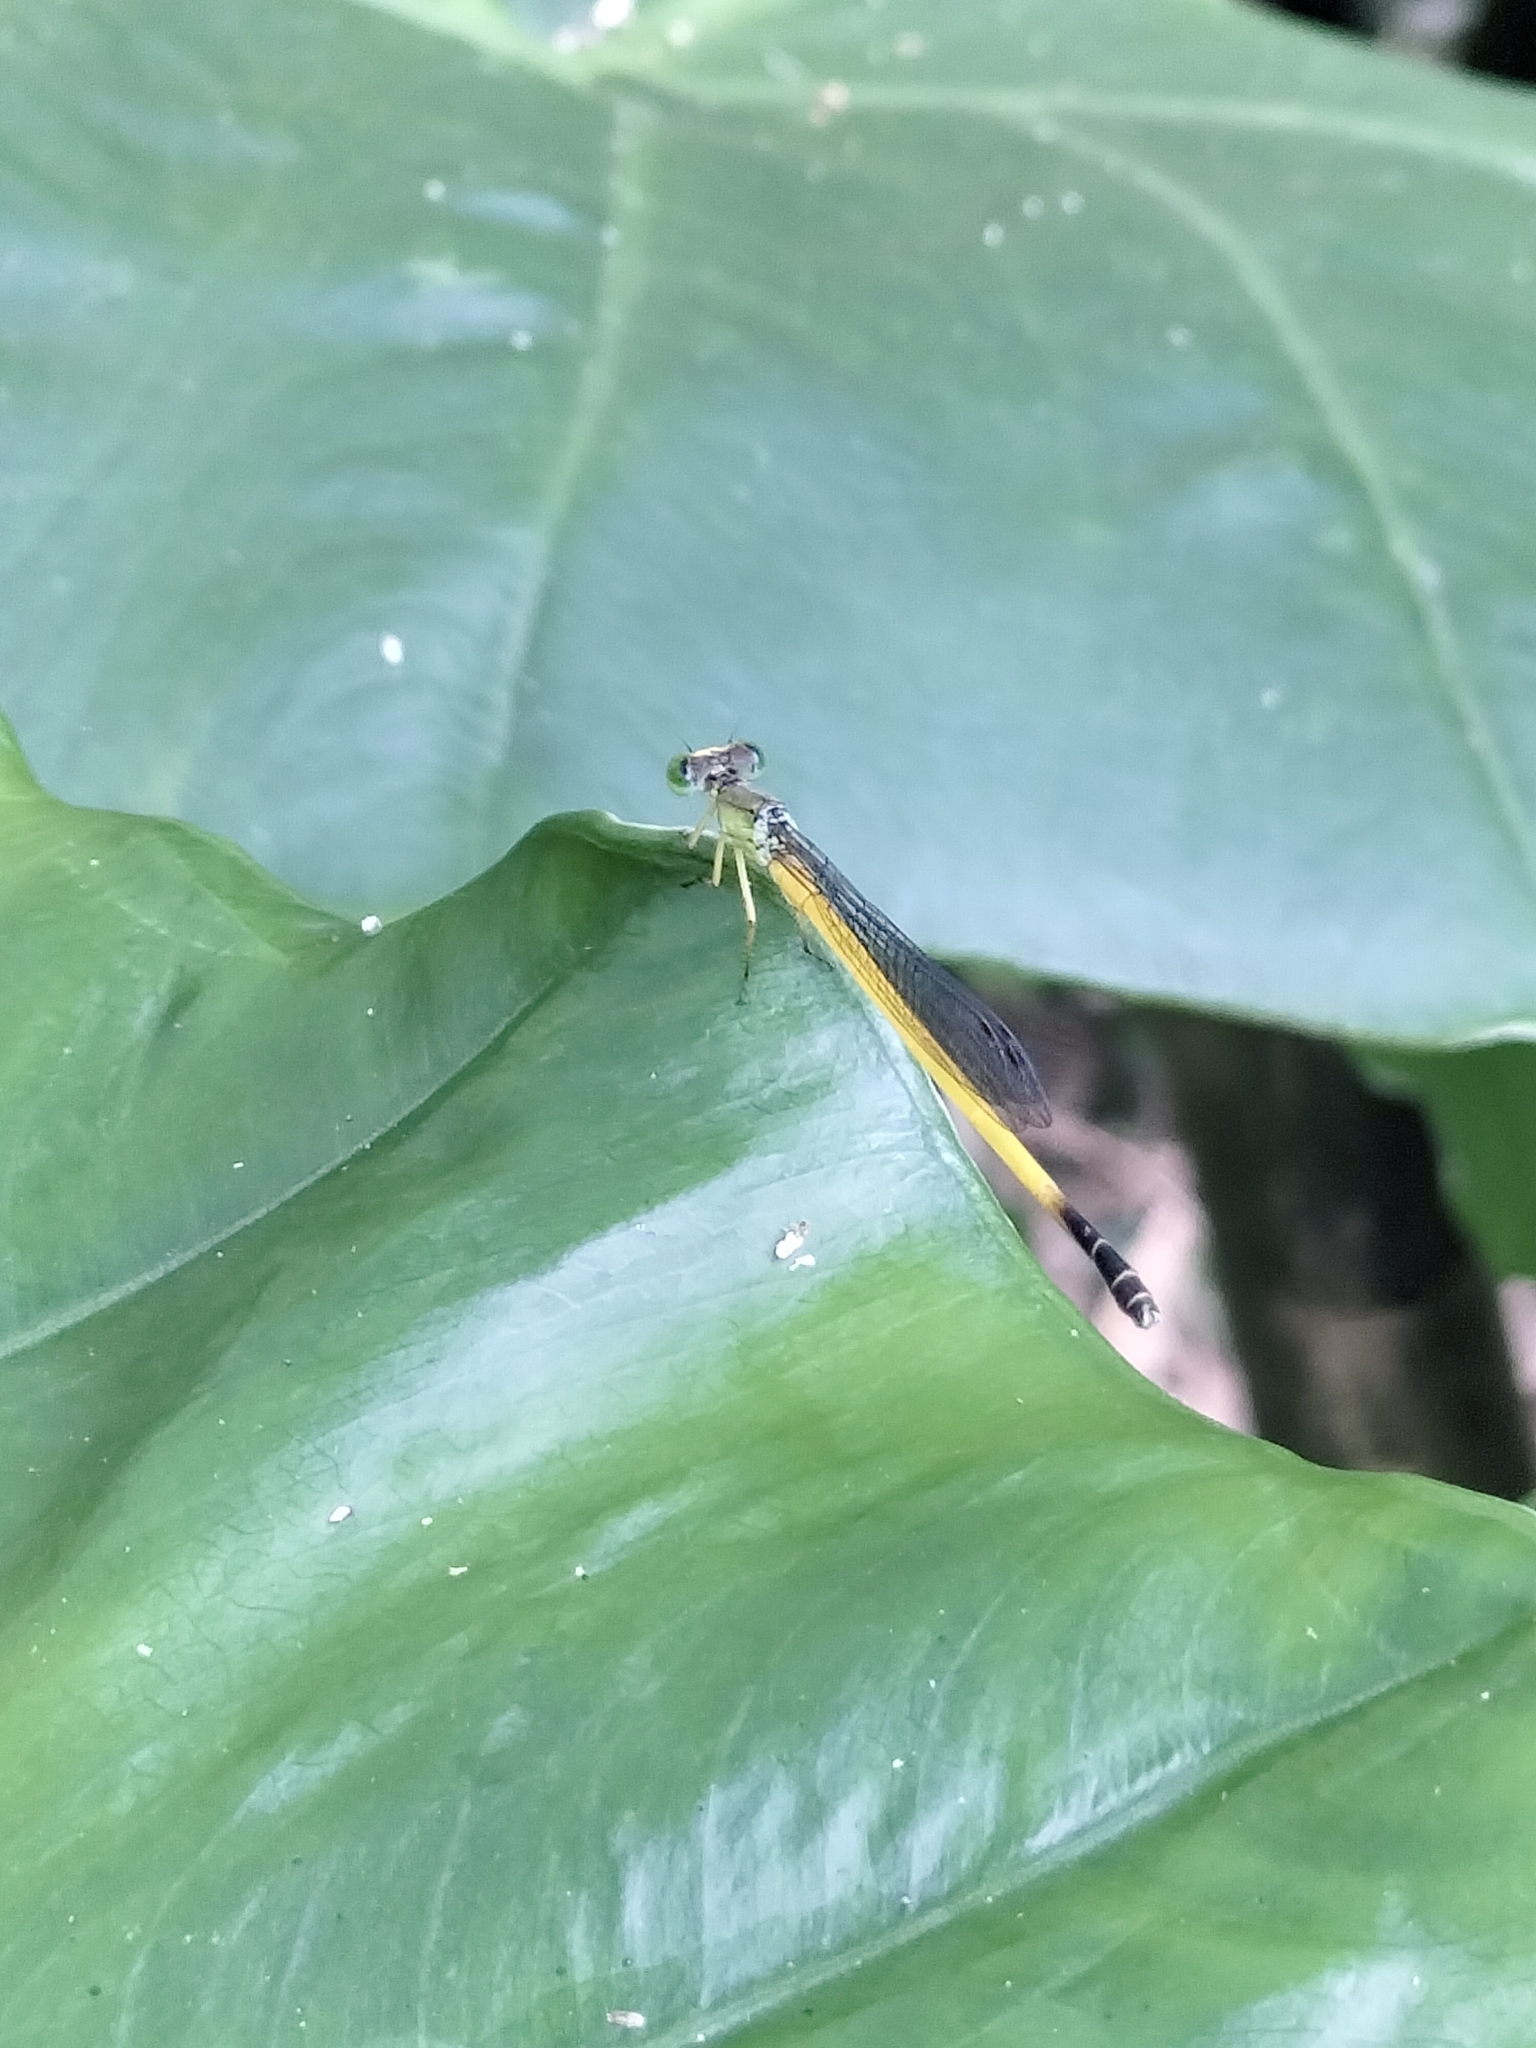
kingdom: Animalia
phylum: Arthropoda
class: Insecta
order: Odonata
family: Coenagrionidae
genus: Ceriagrion
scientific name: Ceriagrion fallax
